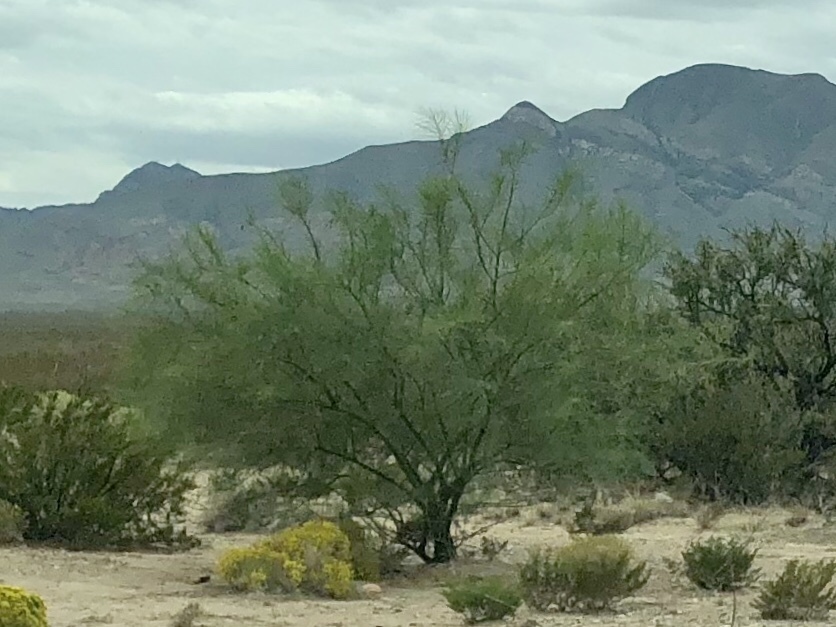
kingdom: Plantae
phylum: Tracheophyta
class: Magnoliopsida
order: Fabales
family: Fabaceae
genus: Parkinsonia
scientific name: Parkinsonia aculeata
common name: Jerusalem thorn
